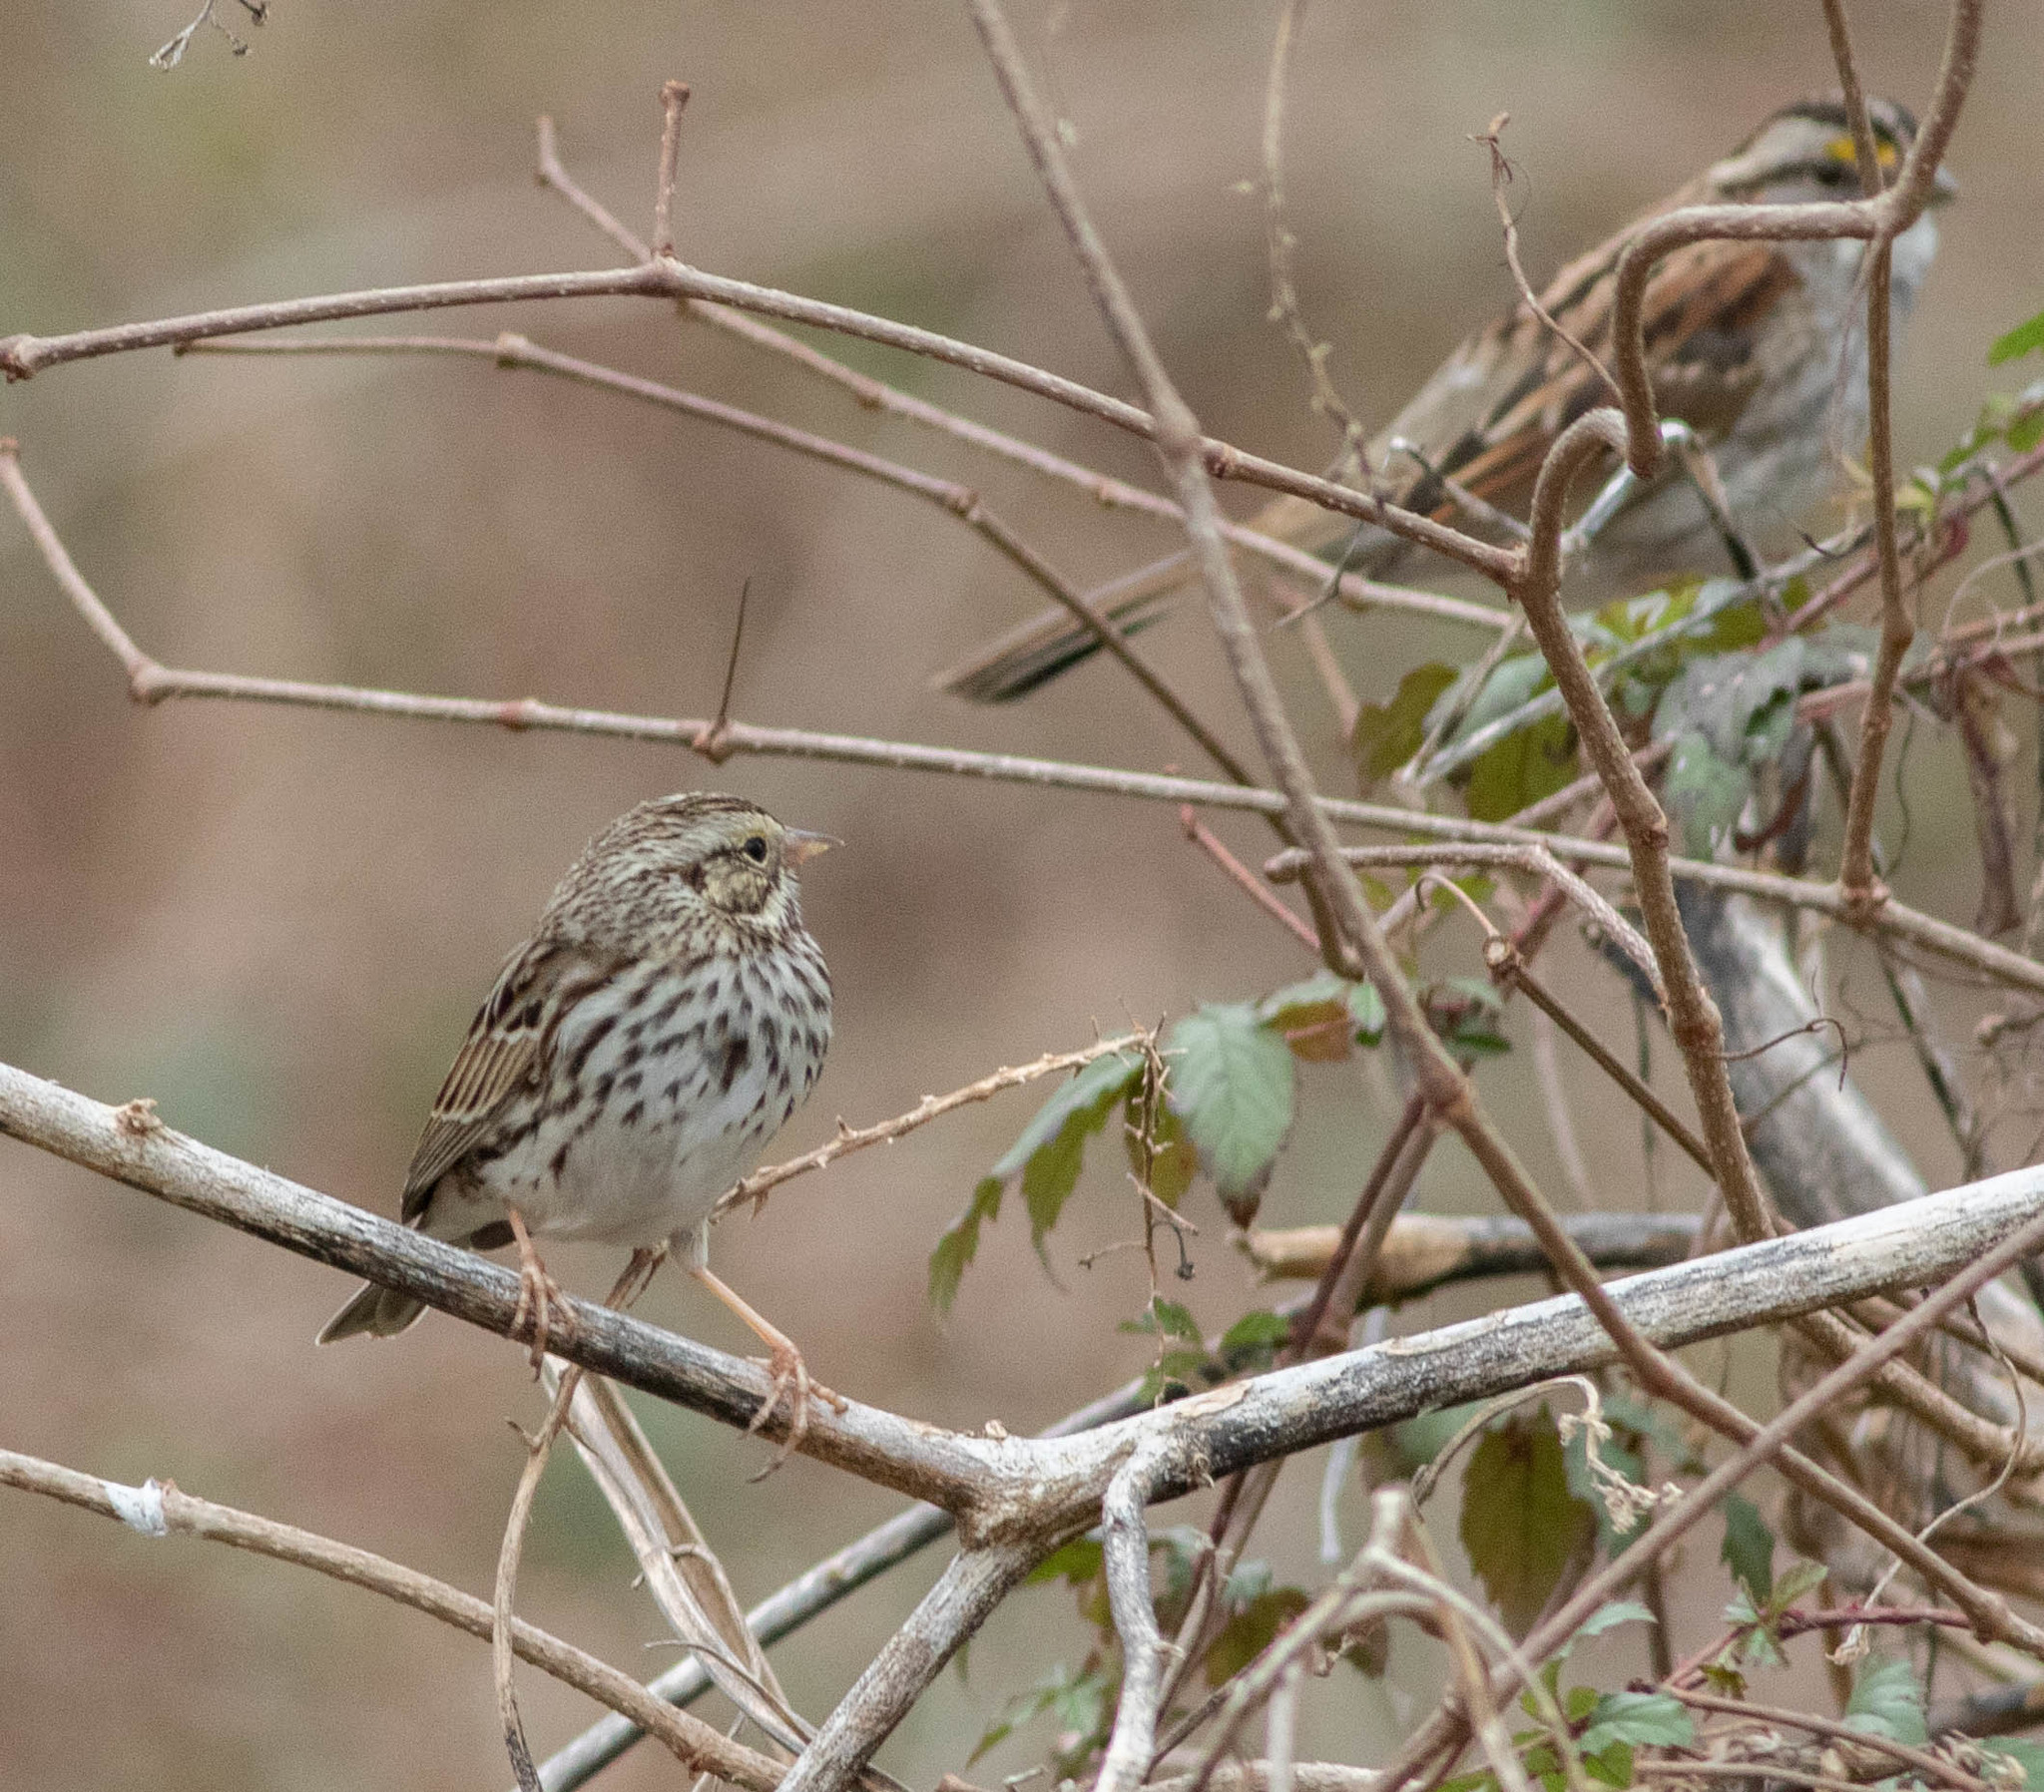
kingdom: Animalia
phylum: Chordata
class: Aves
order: Passeriformes
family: Passerellidae
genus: Passerculus
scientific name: Passerculus sandwichensis
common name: Savannah sparrow
